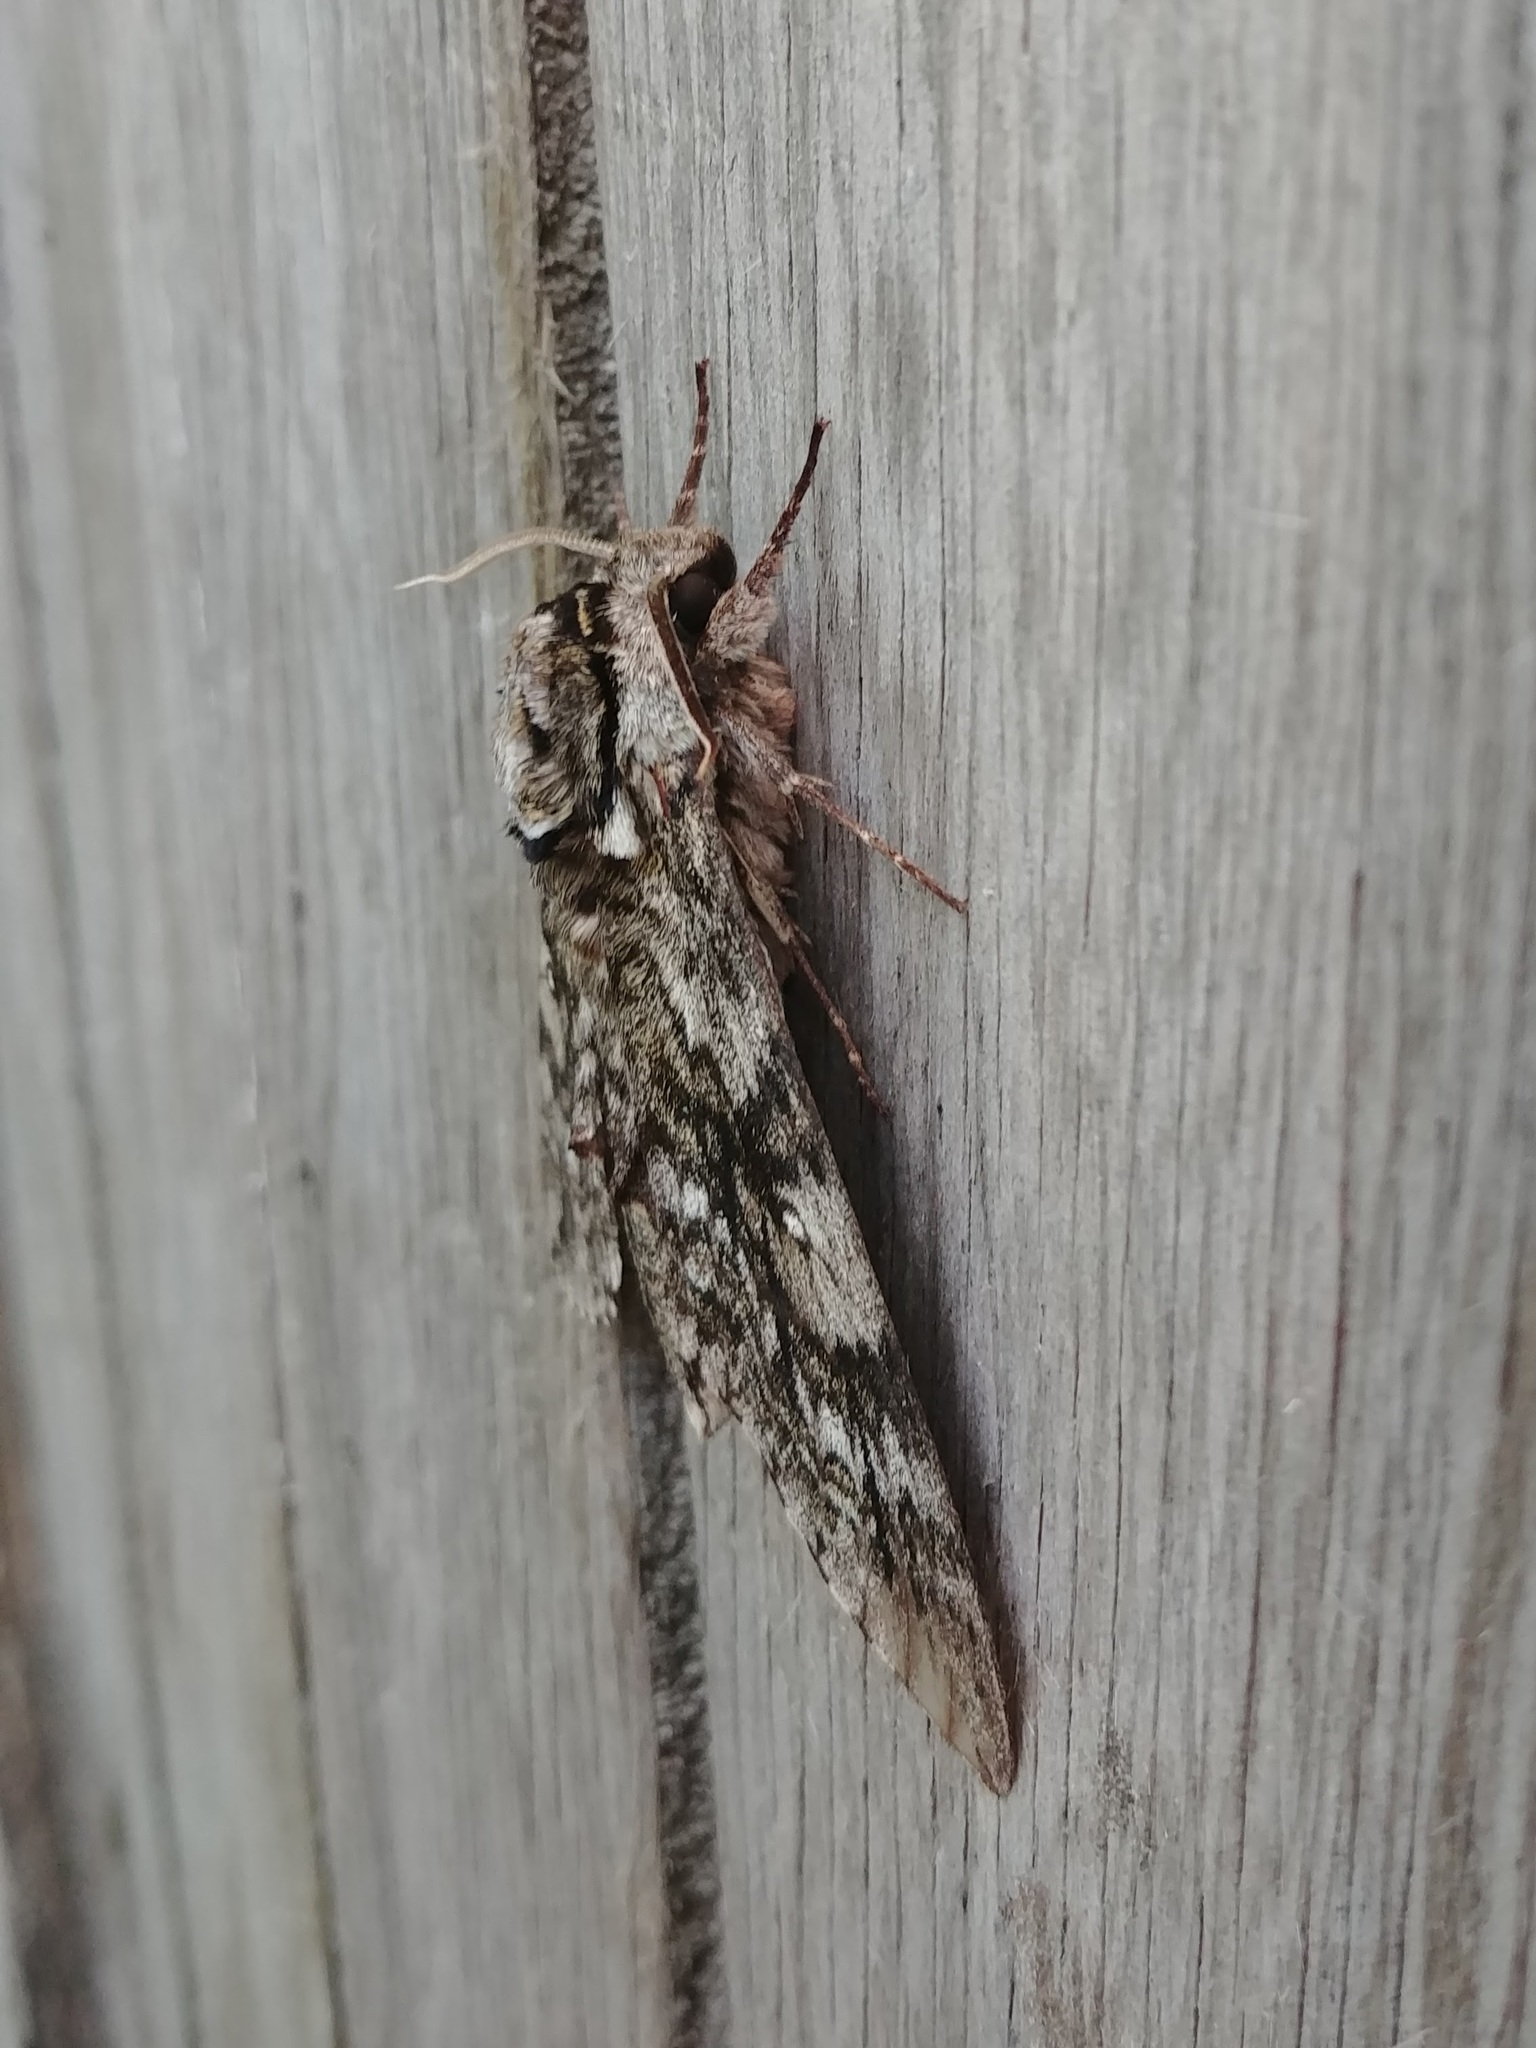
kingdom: Animalia
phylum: Arthropoda
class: Insecta
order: Lepidoptera
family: Sphingidae
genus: Ceratomia
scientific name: Ceratomia undulosa
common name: Waved sphinx
